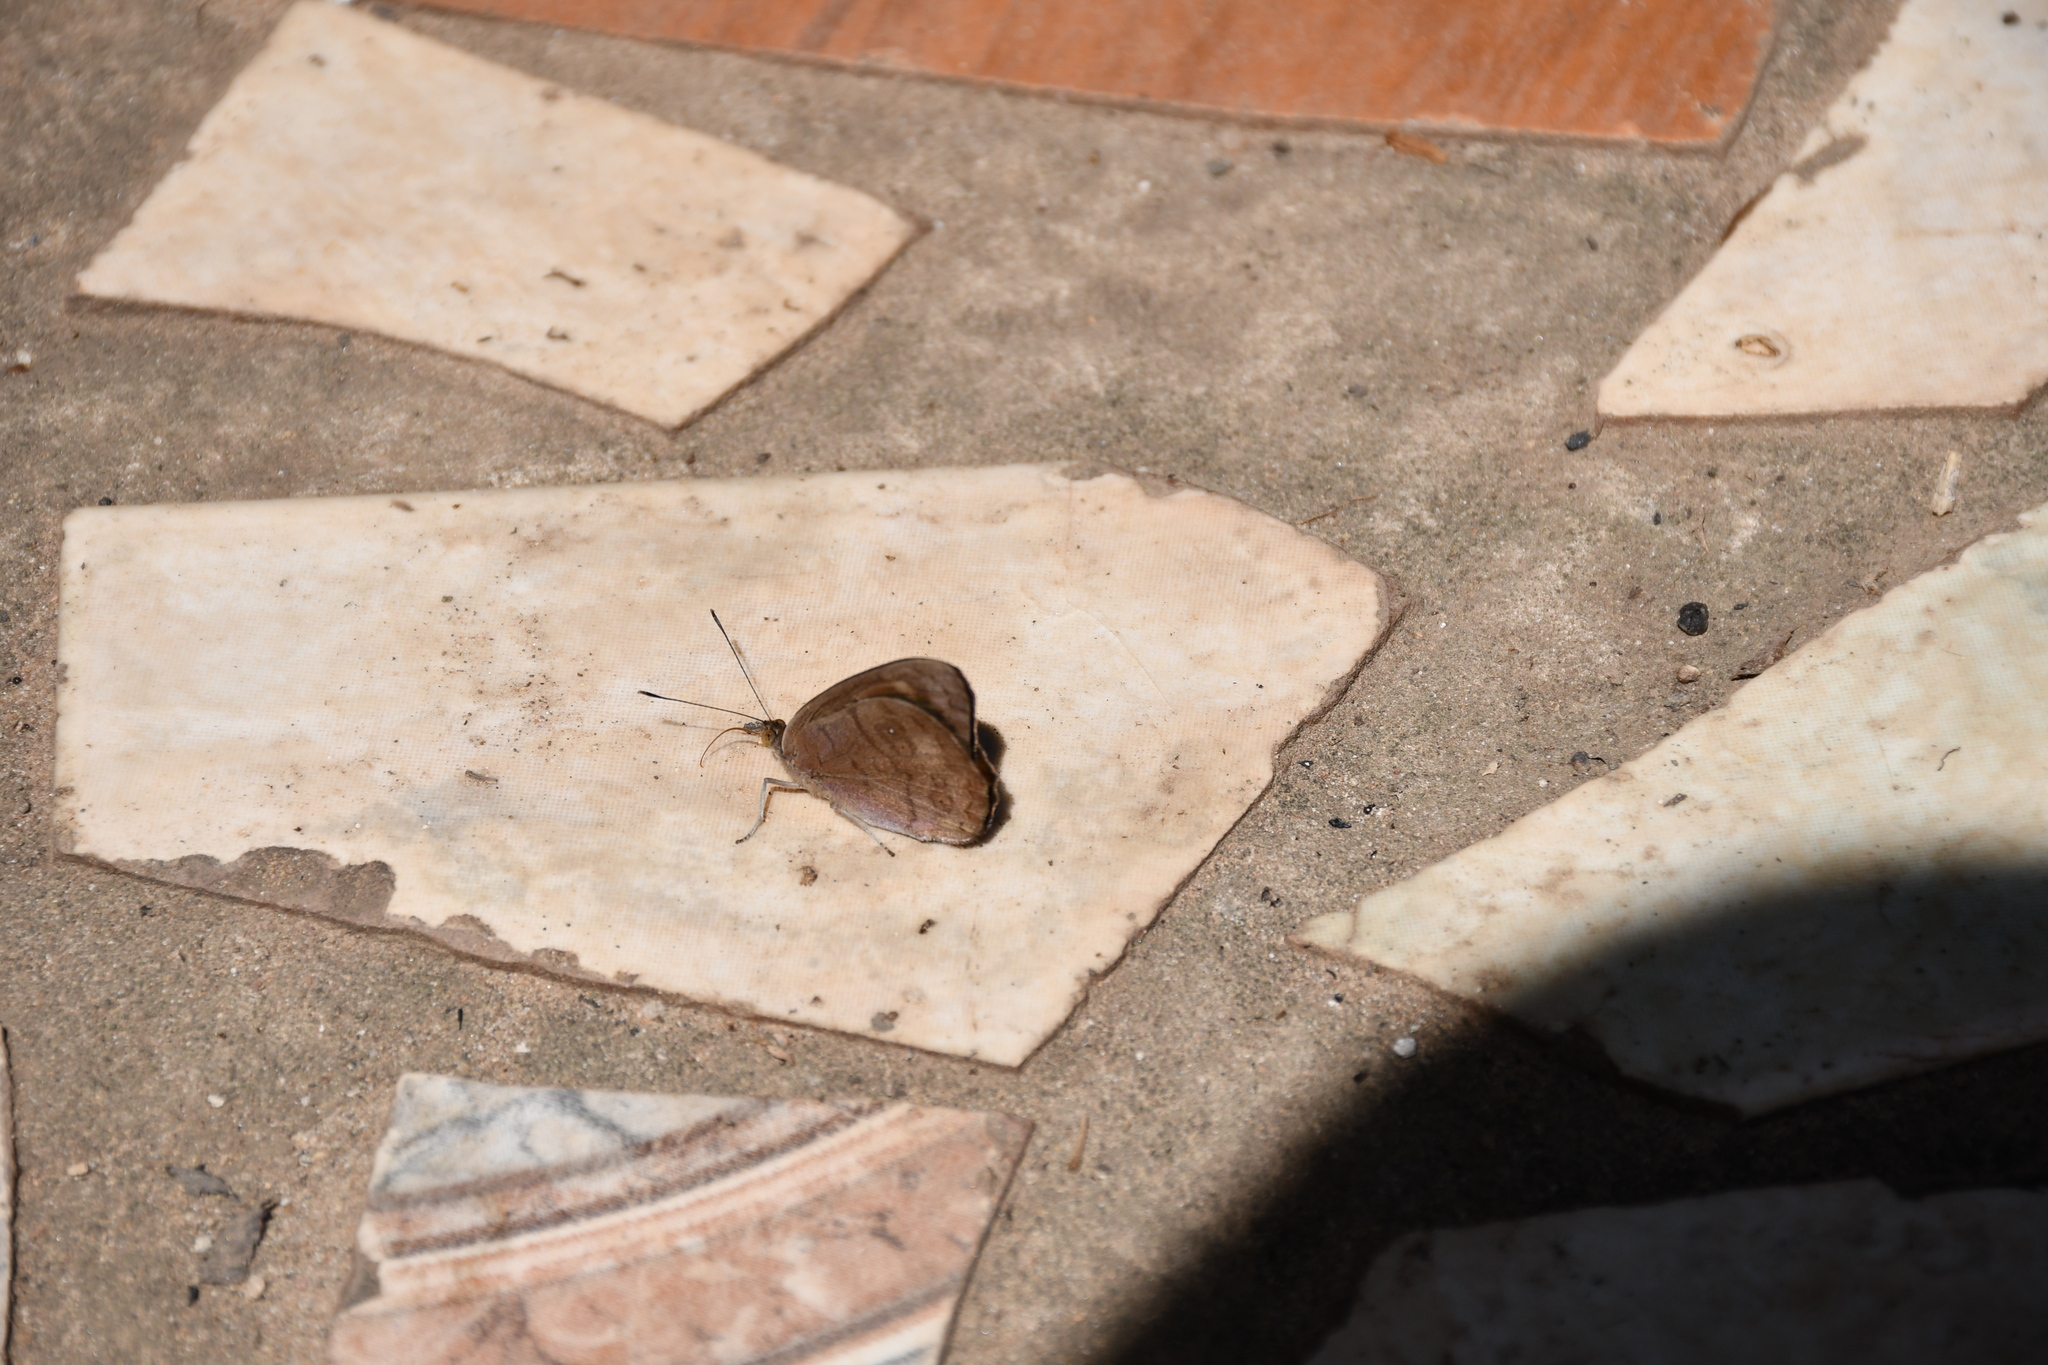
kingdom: Animalia
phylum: Arthropoda
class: Insecta
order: Lepidoptera
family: Nymphalidae
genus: Eunica
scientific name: Eunica pusilla
